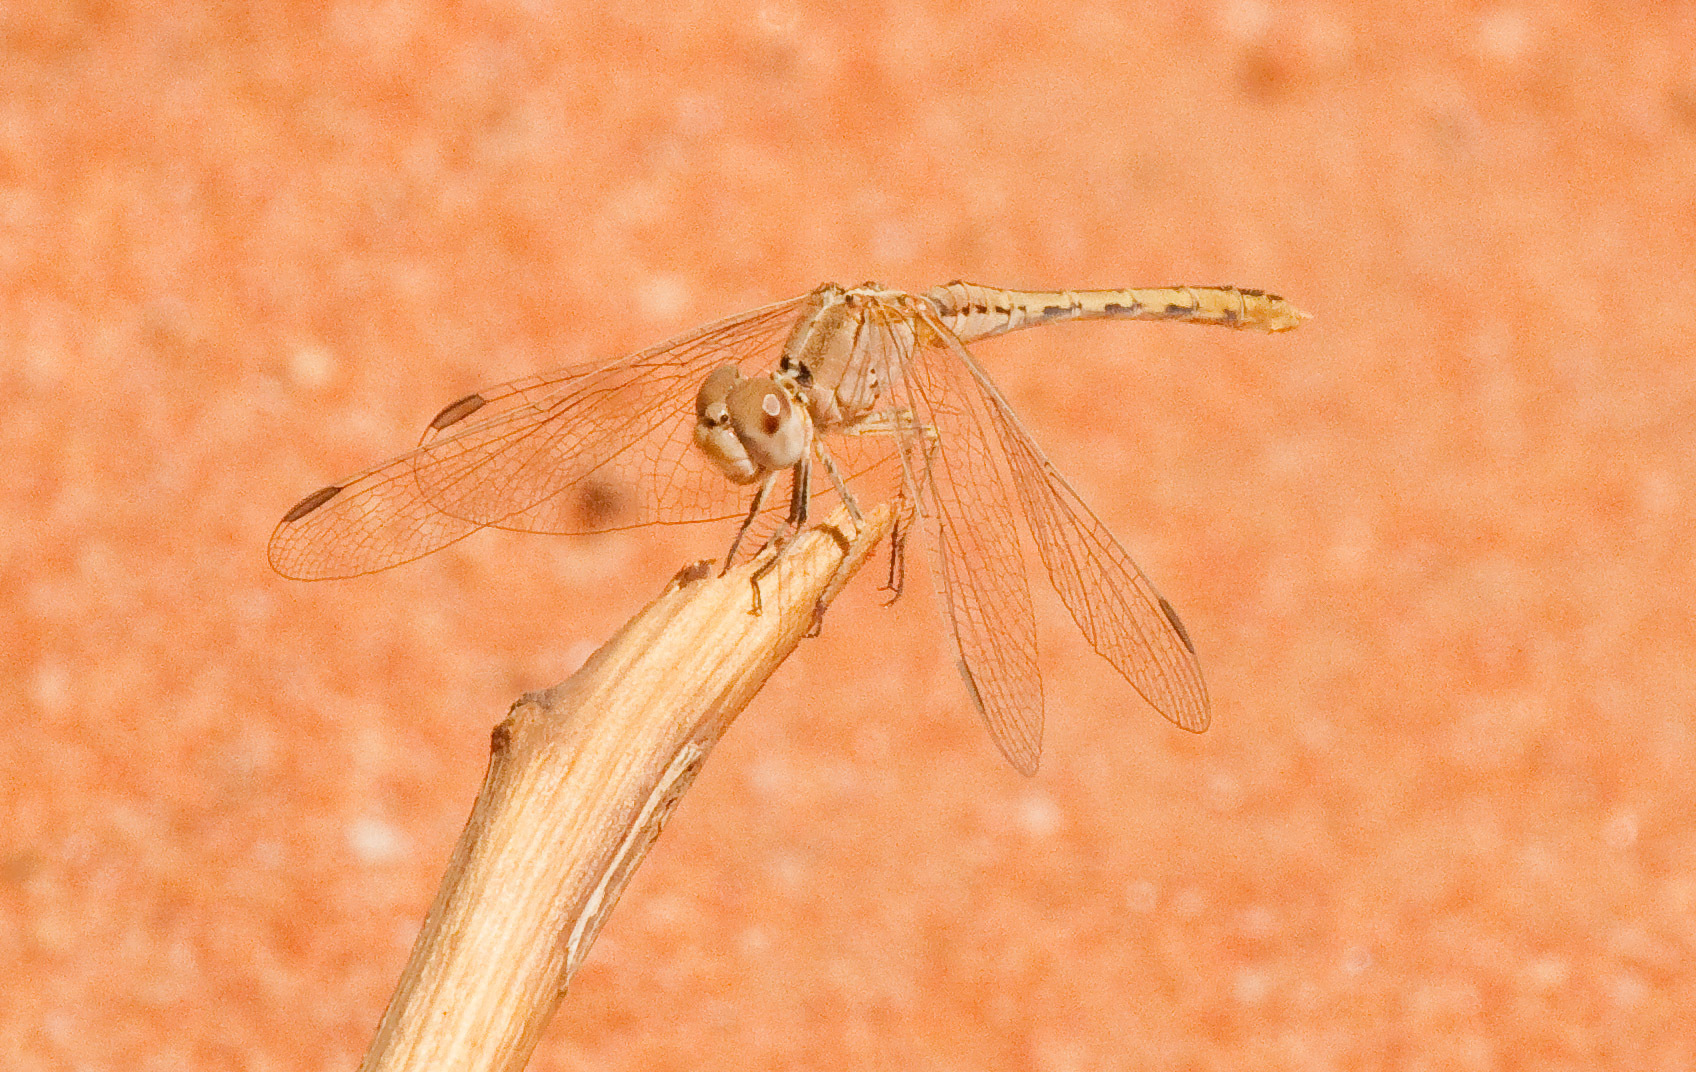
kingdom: Animalia
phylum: Arthropoda
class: Insecta
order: Odonata
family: Libellulidae
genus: Diplacodes
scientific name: Diplacodes bipunctata
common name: Red percher dragonfly
